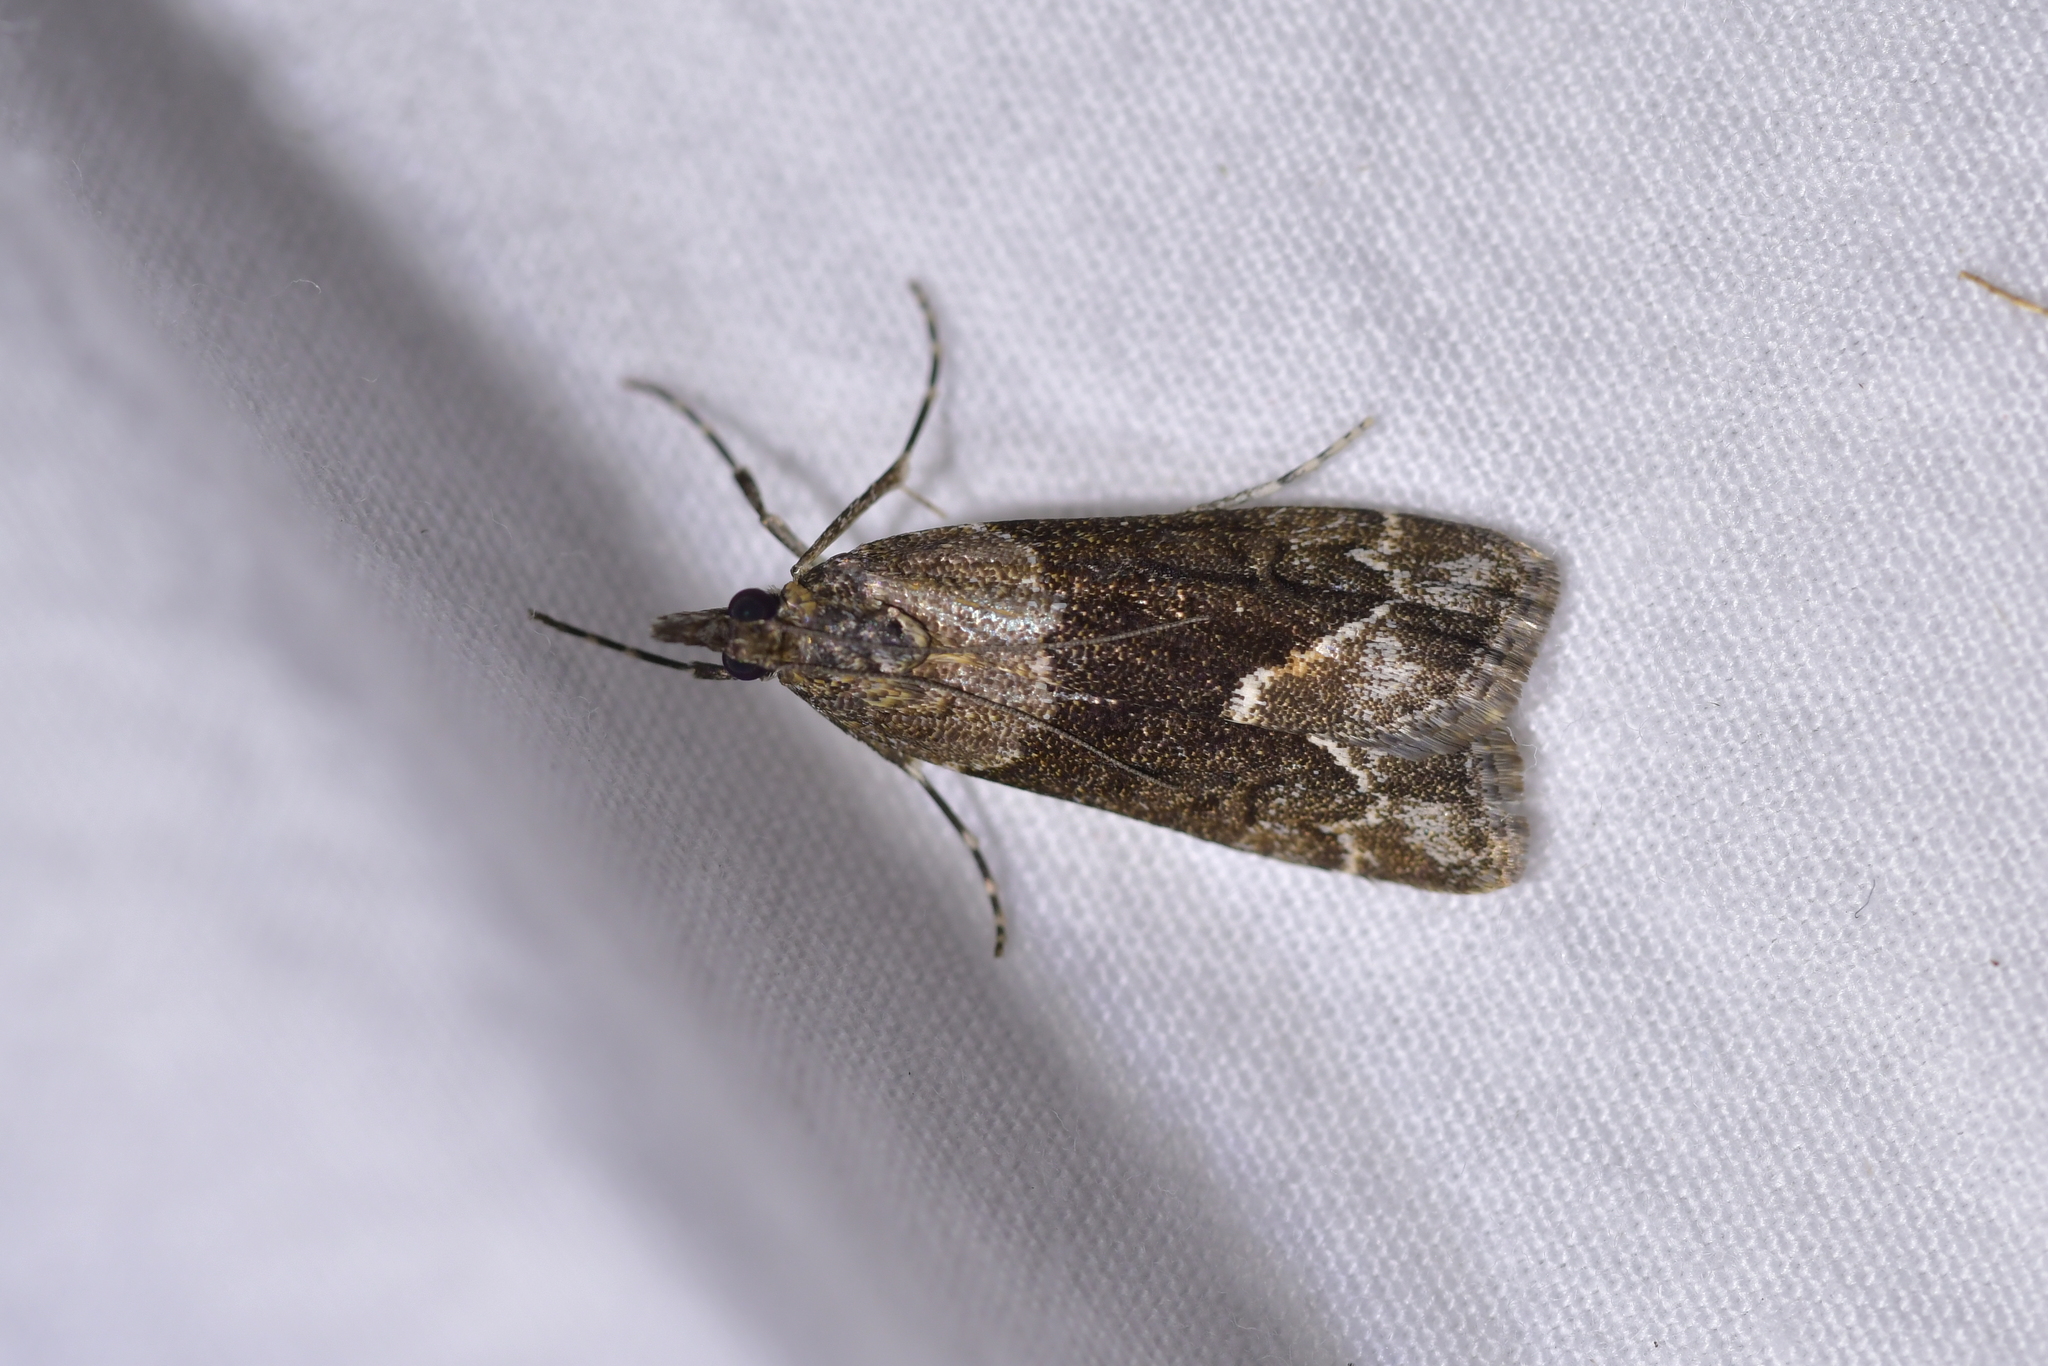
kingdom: Animalia
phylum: Arthropoda
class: Insecta
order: Lepidoptera
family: Crambidae
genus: Eudonia
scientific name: Eudonia submarginalis
